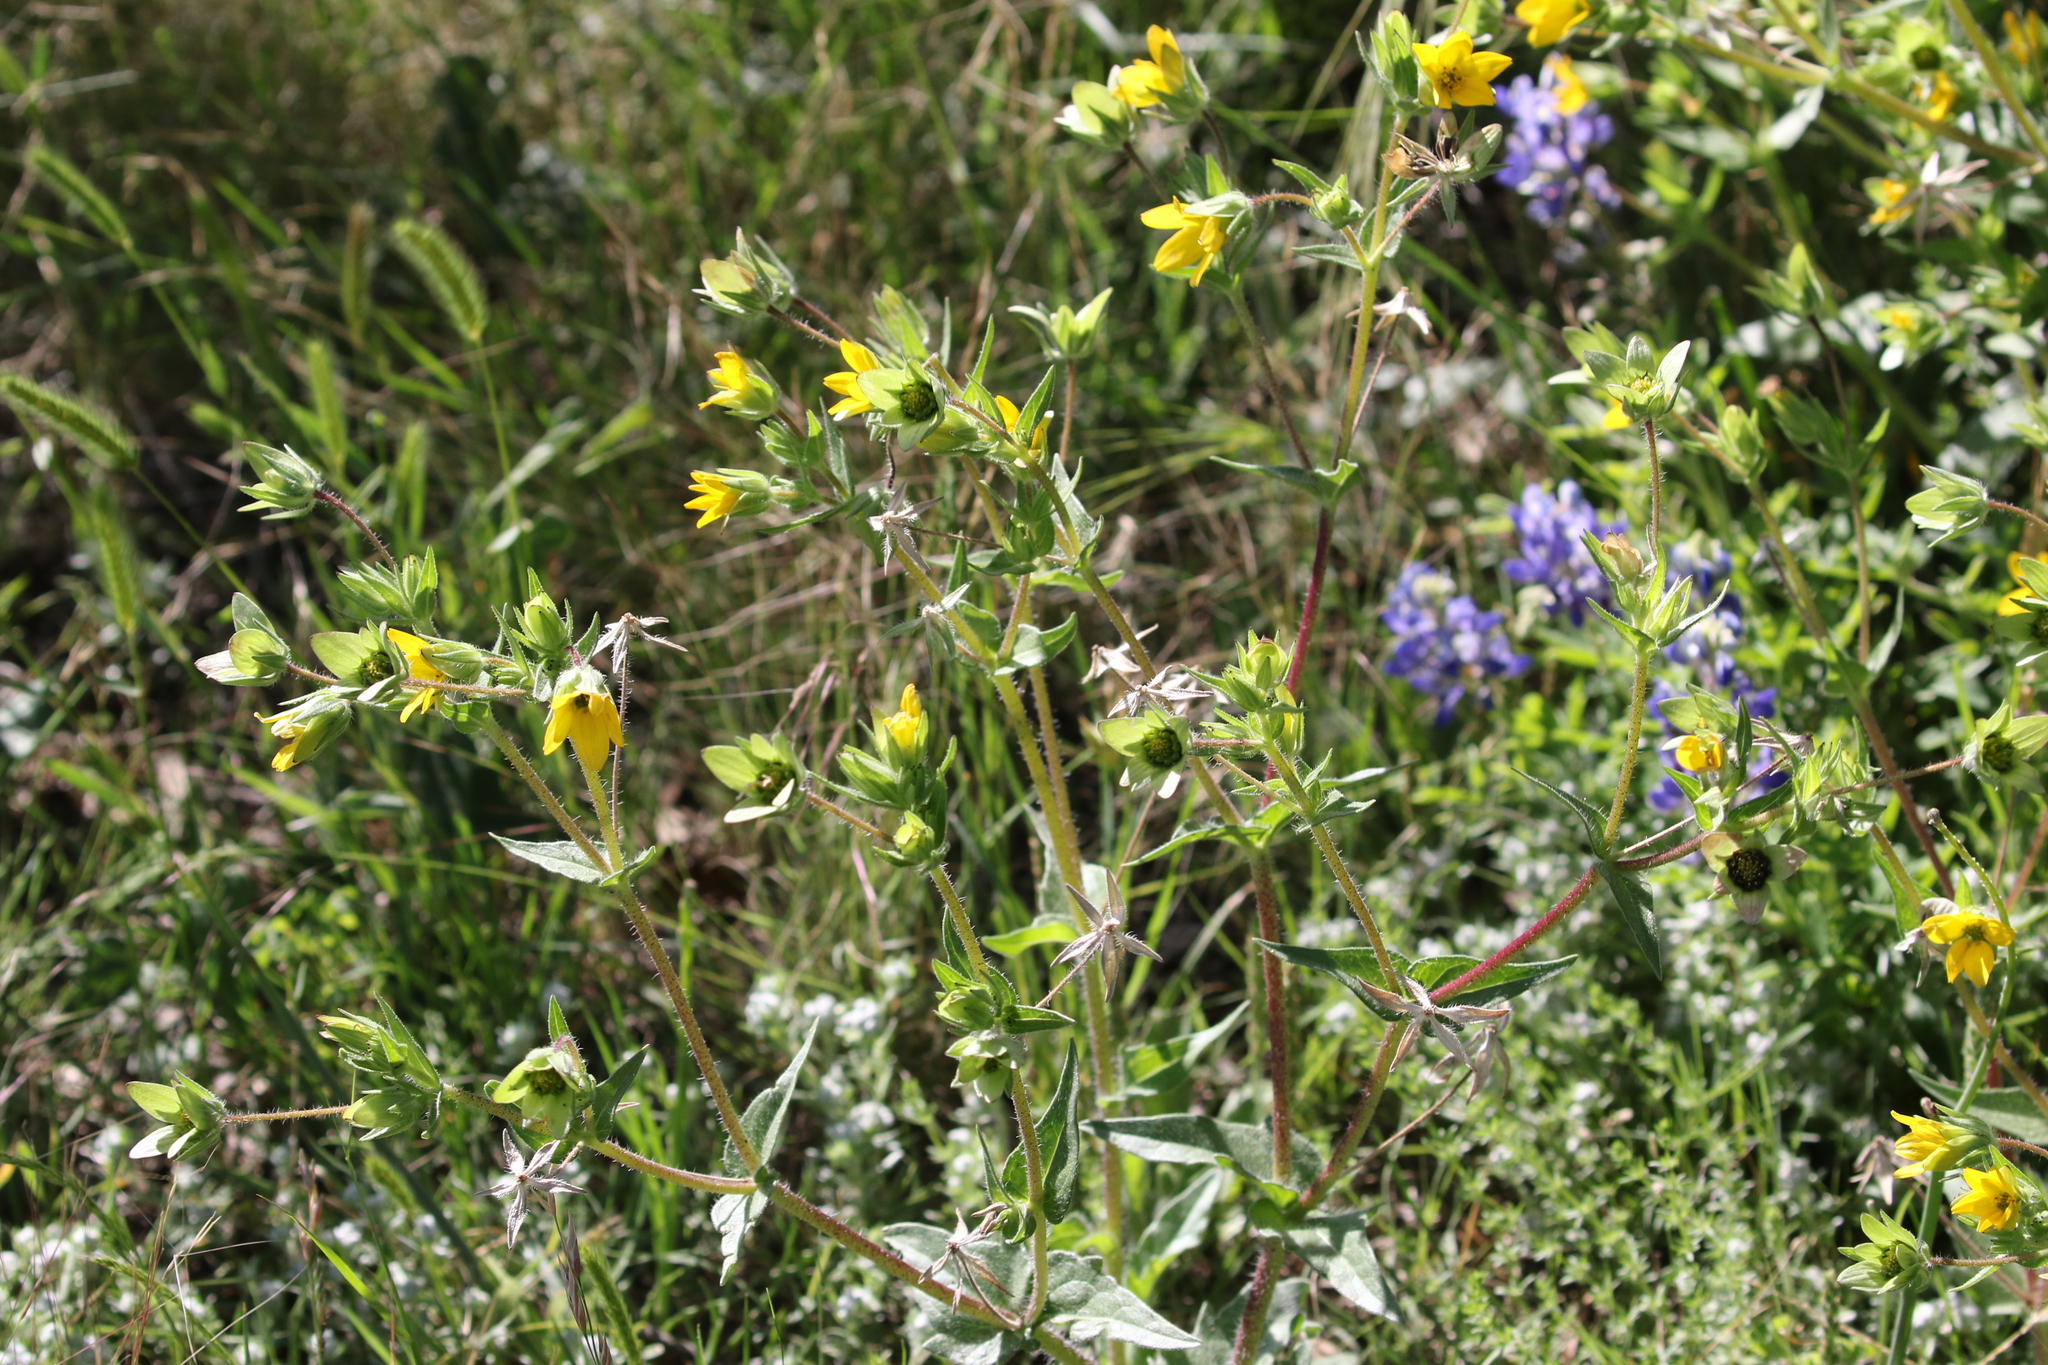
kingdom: Plantae
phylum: Tracheophyta
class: Magnoliopsida
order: Asterales
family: Asteraceae
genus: Lindheimera
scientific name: Lindheimera texana
